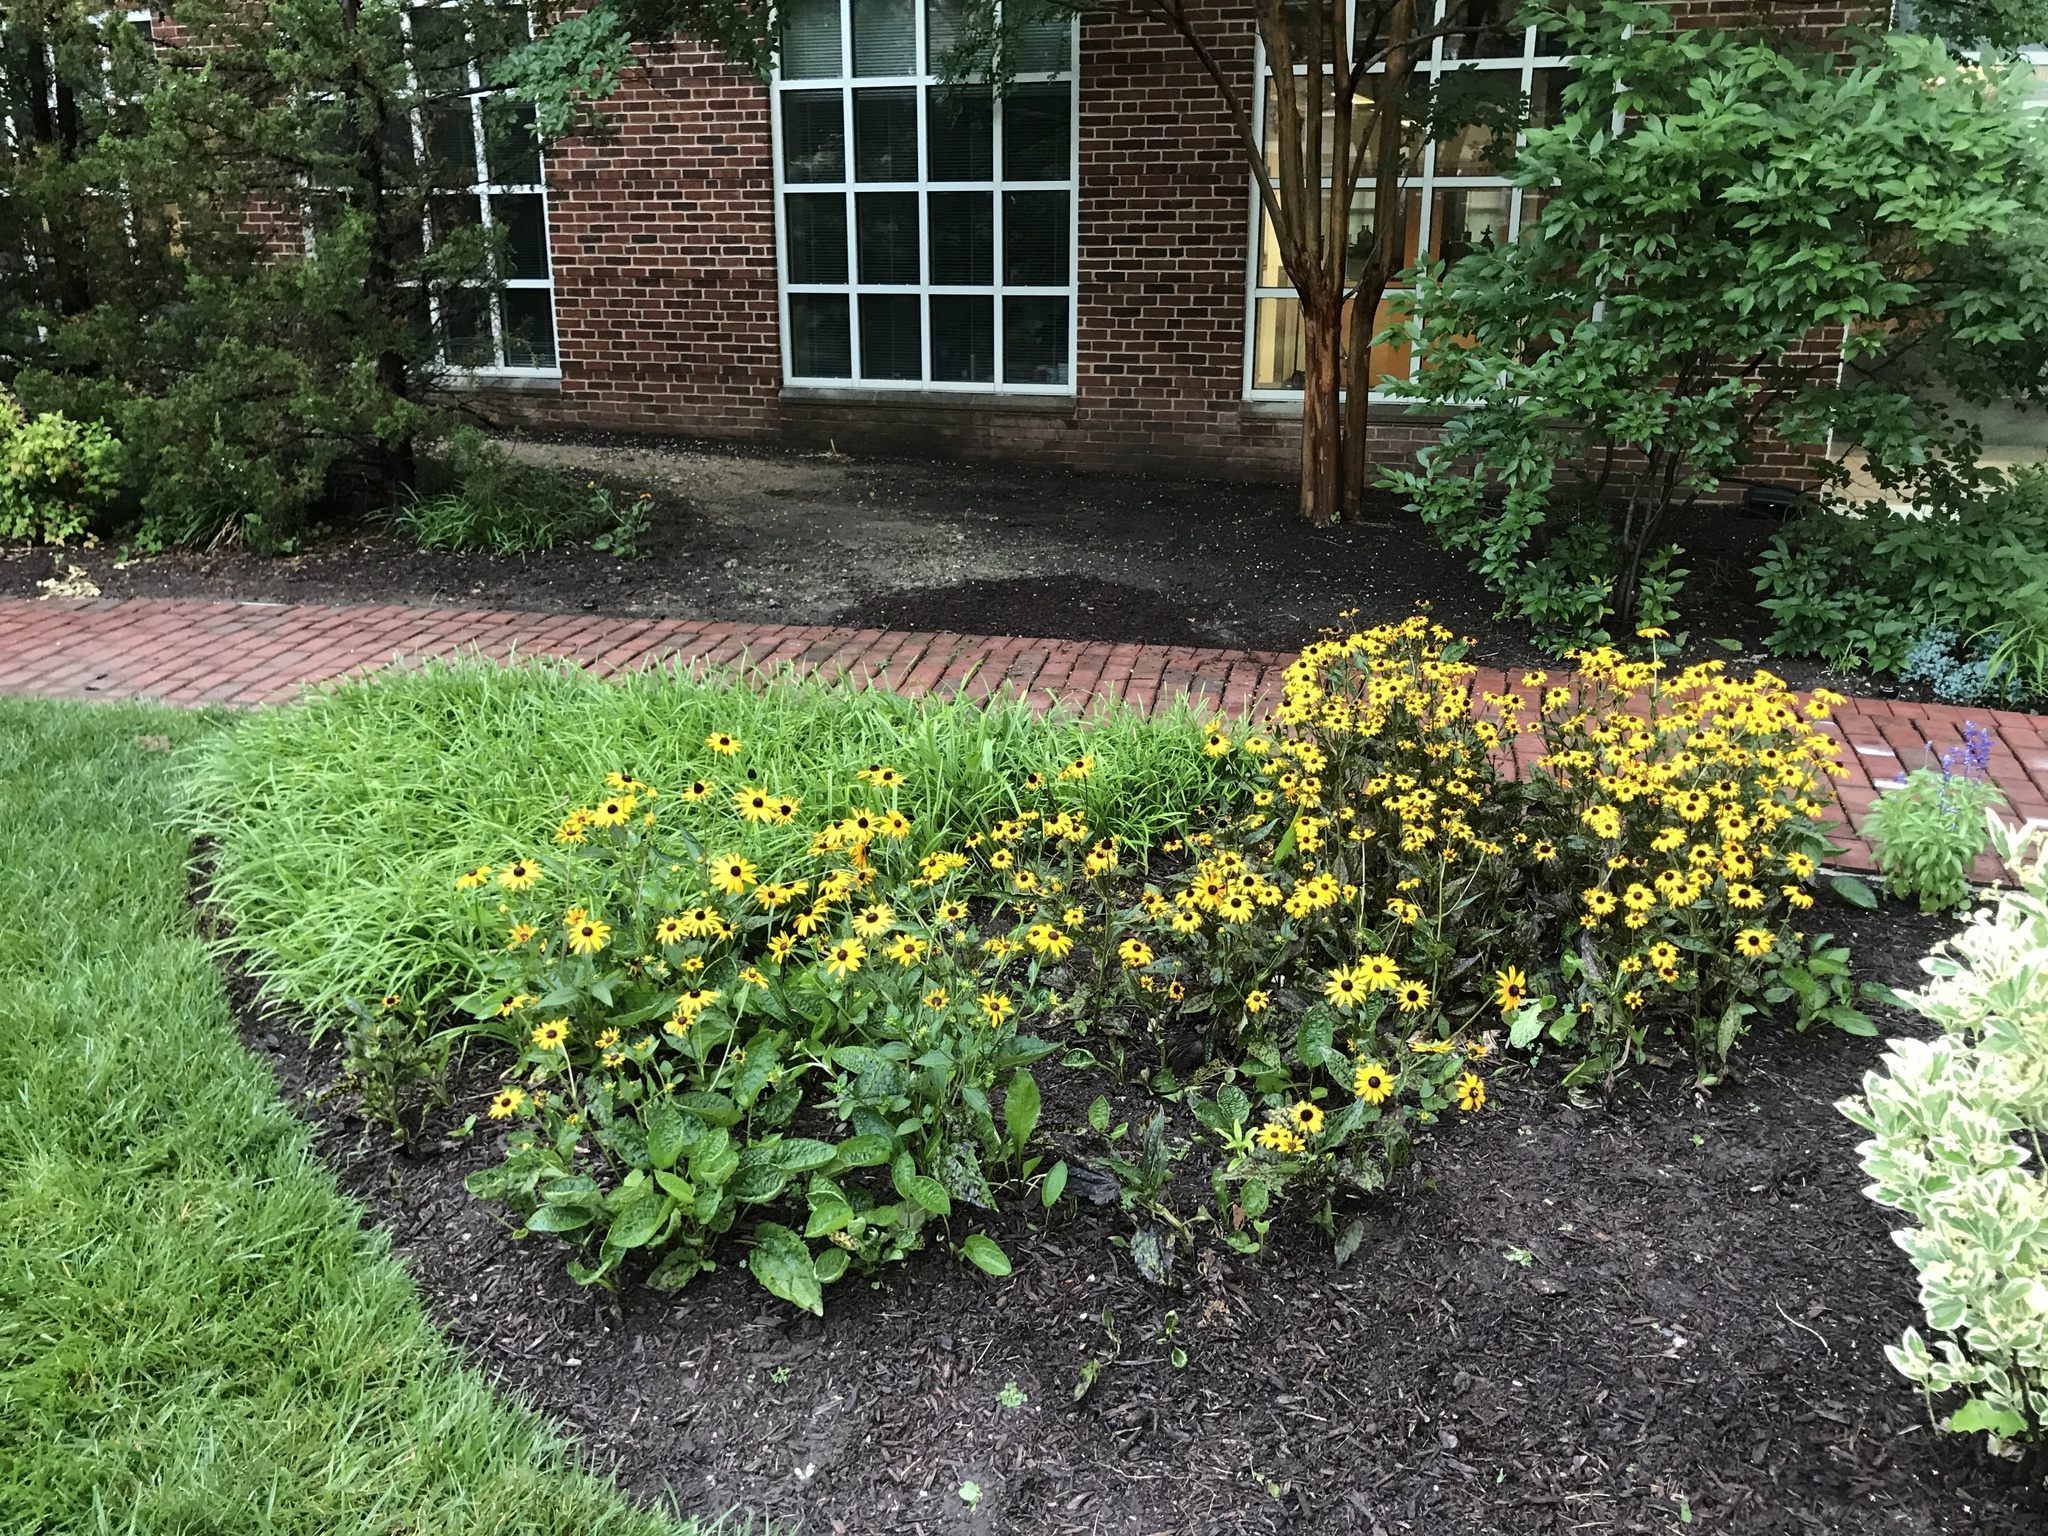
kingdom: Plantae
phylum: Tracheophyta
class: Magnoliopsida
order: Asterales
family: Asteraceae
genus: Rudbeckia
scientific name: Rudbeckia hirta
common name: Black-eyed-susan
